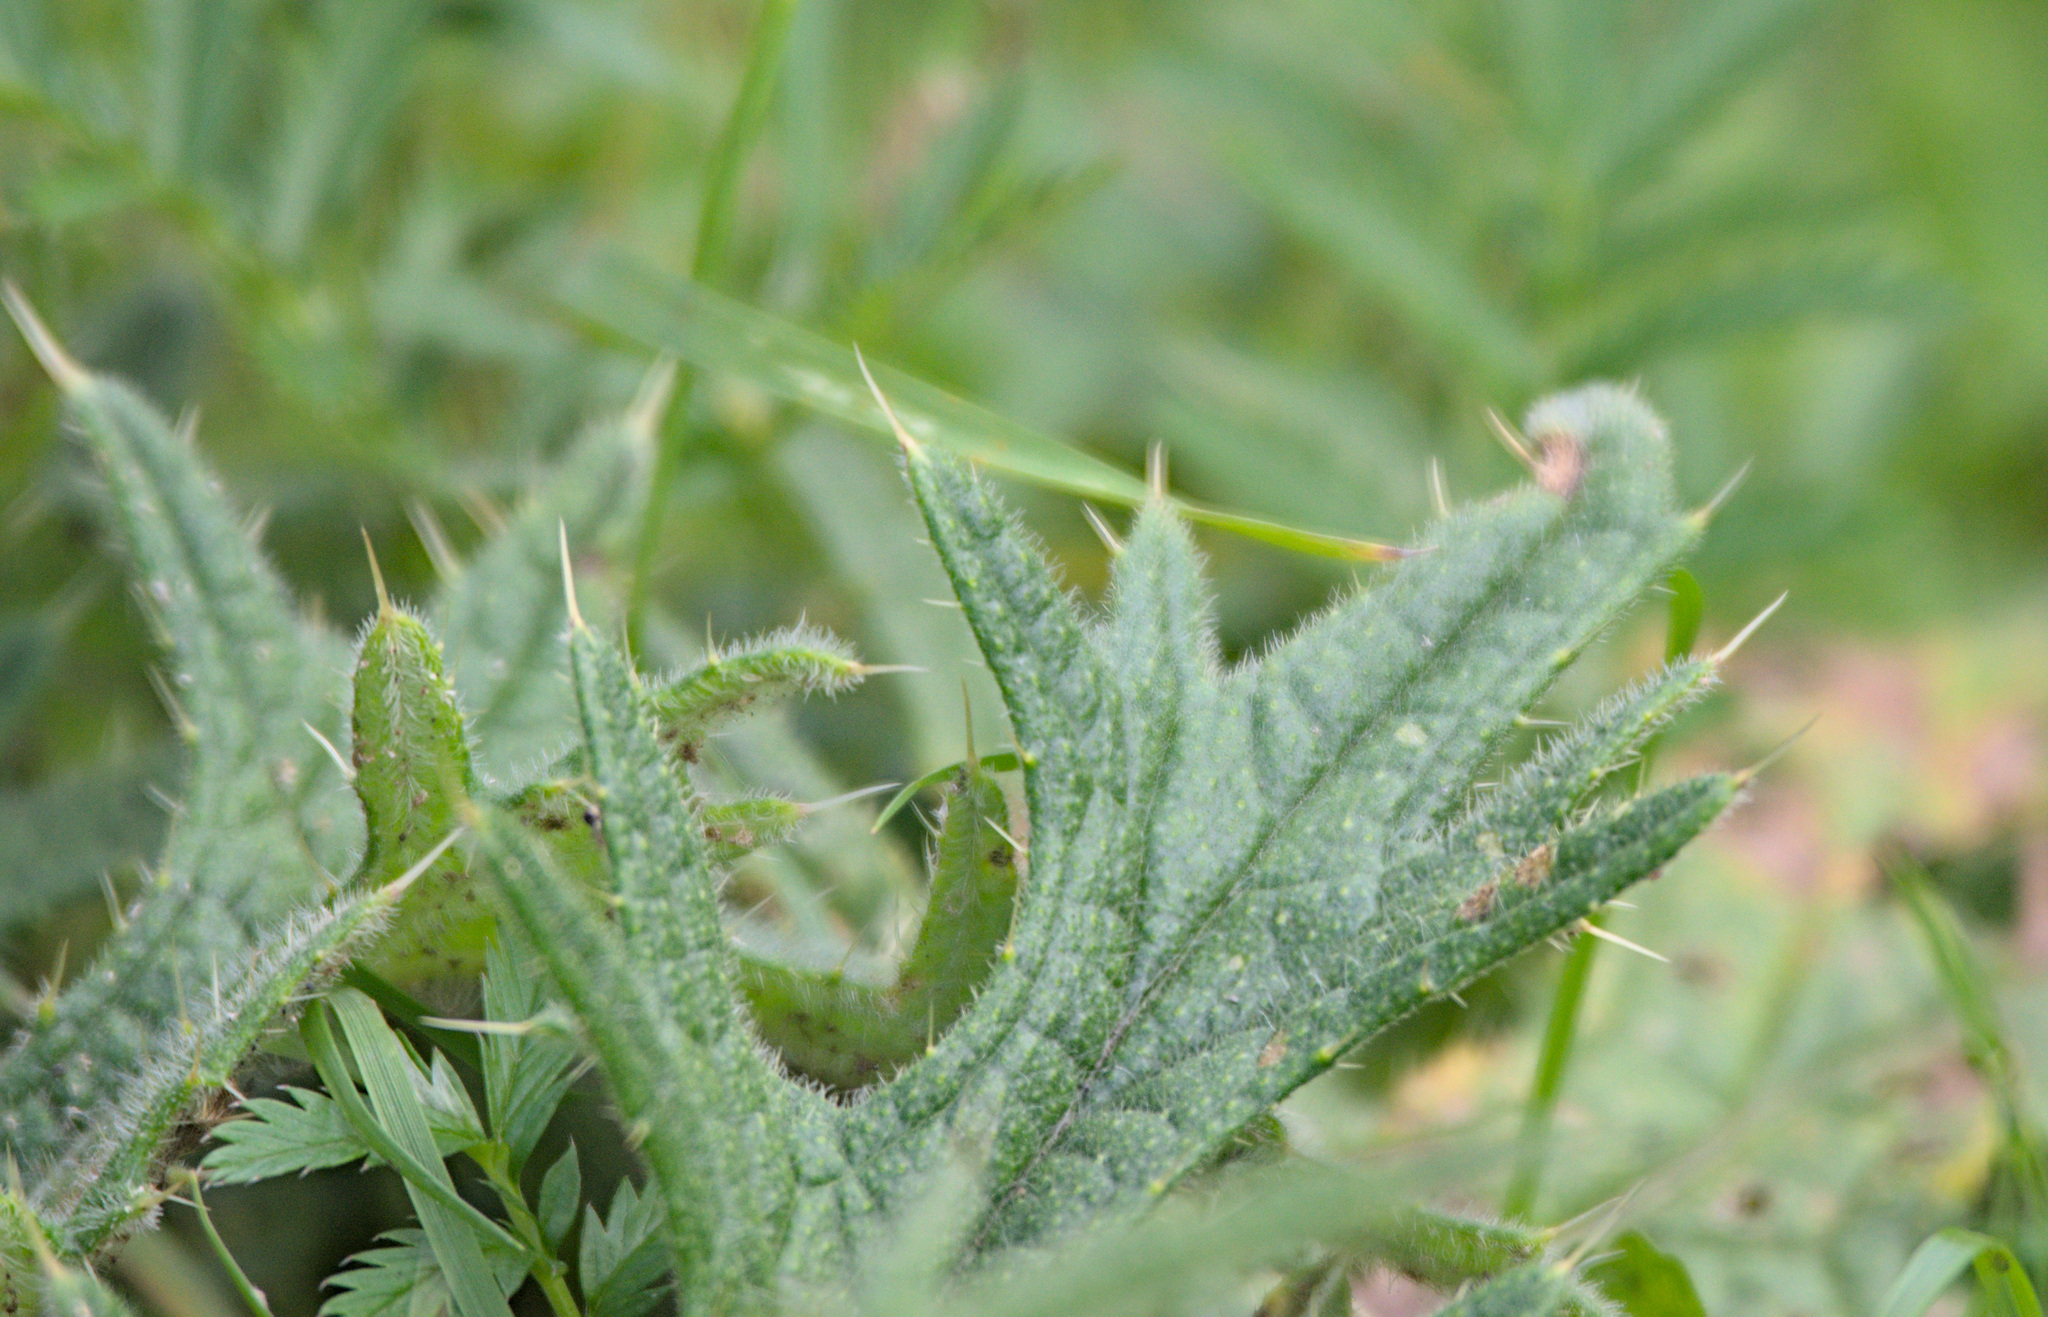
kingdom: Plantae
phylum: Tracheophyta
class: Magnoliopsida
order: Asterales
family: Asteraceae
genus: Cirsium
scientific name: Cirsium vulgare
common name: Bull thistle
